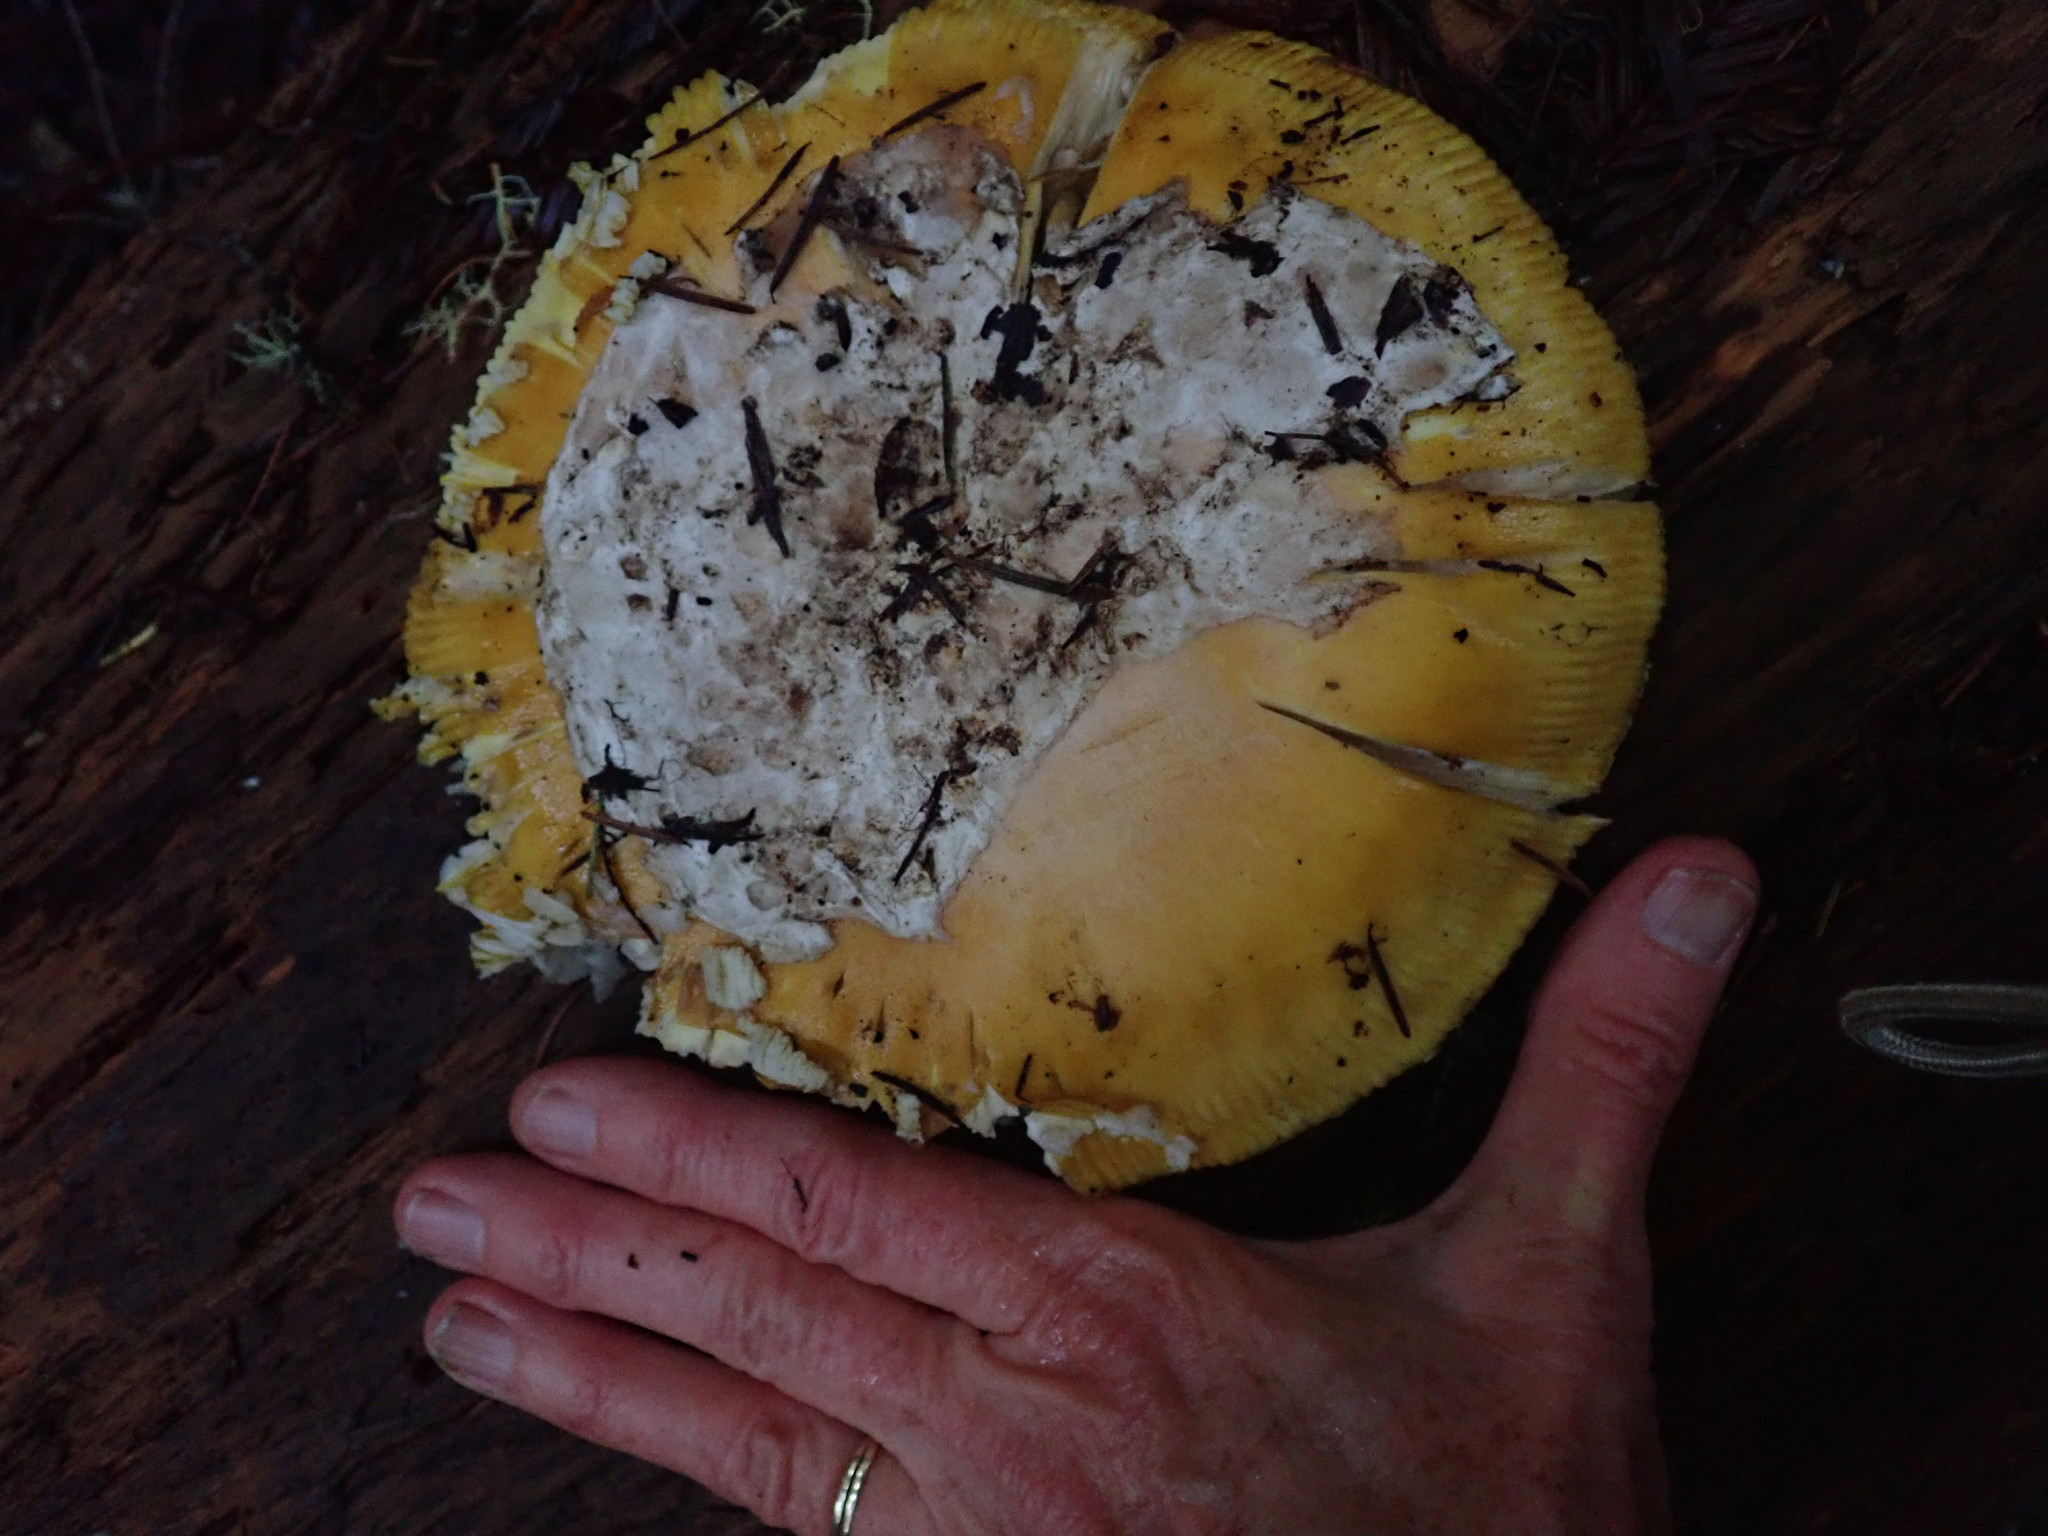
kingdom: Fungi
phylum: Basidiomycota
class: Agaricomycetes
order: Agaricales
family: Amanitaceae
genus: Amanita
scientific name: Amanita calyptroderma
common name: Coccora
